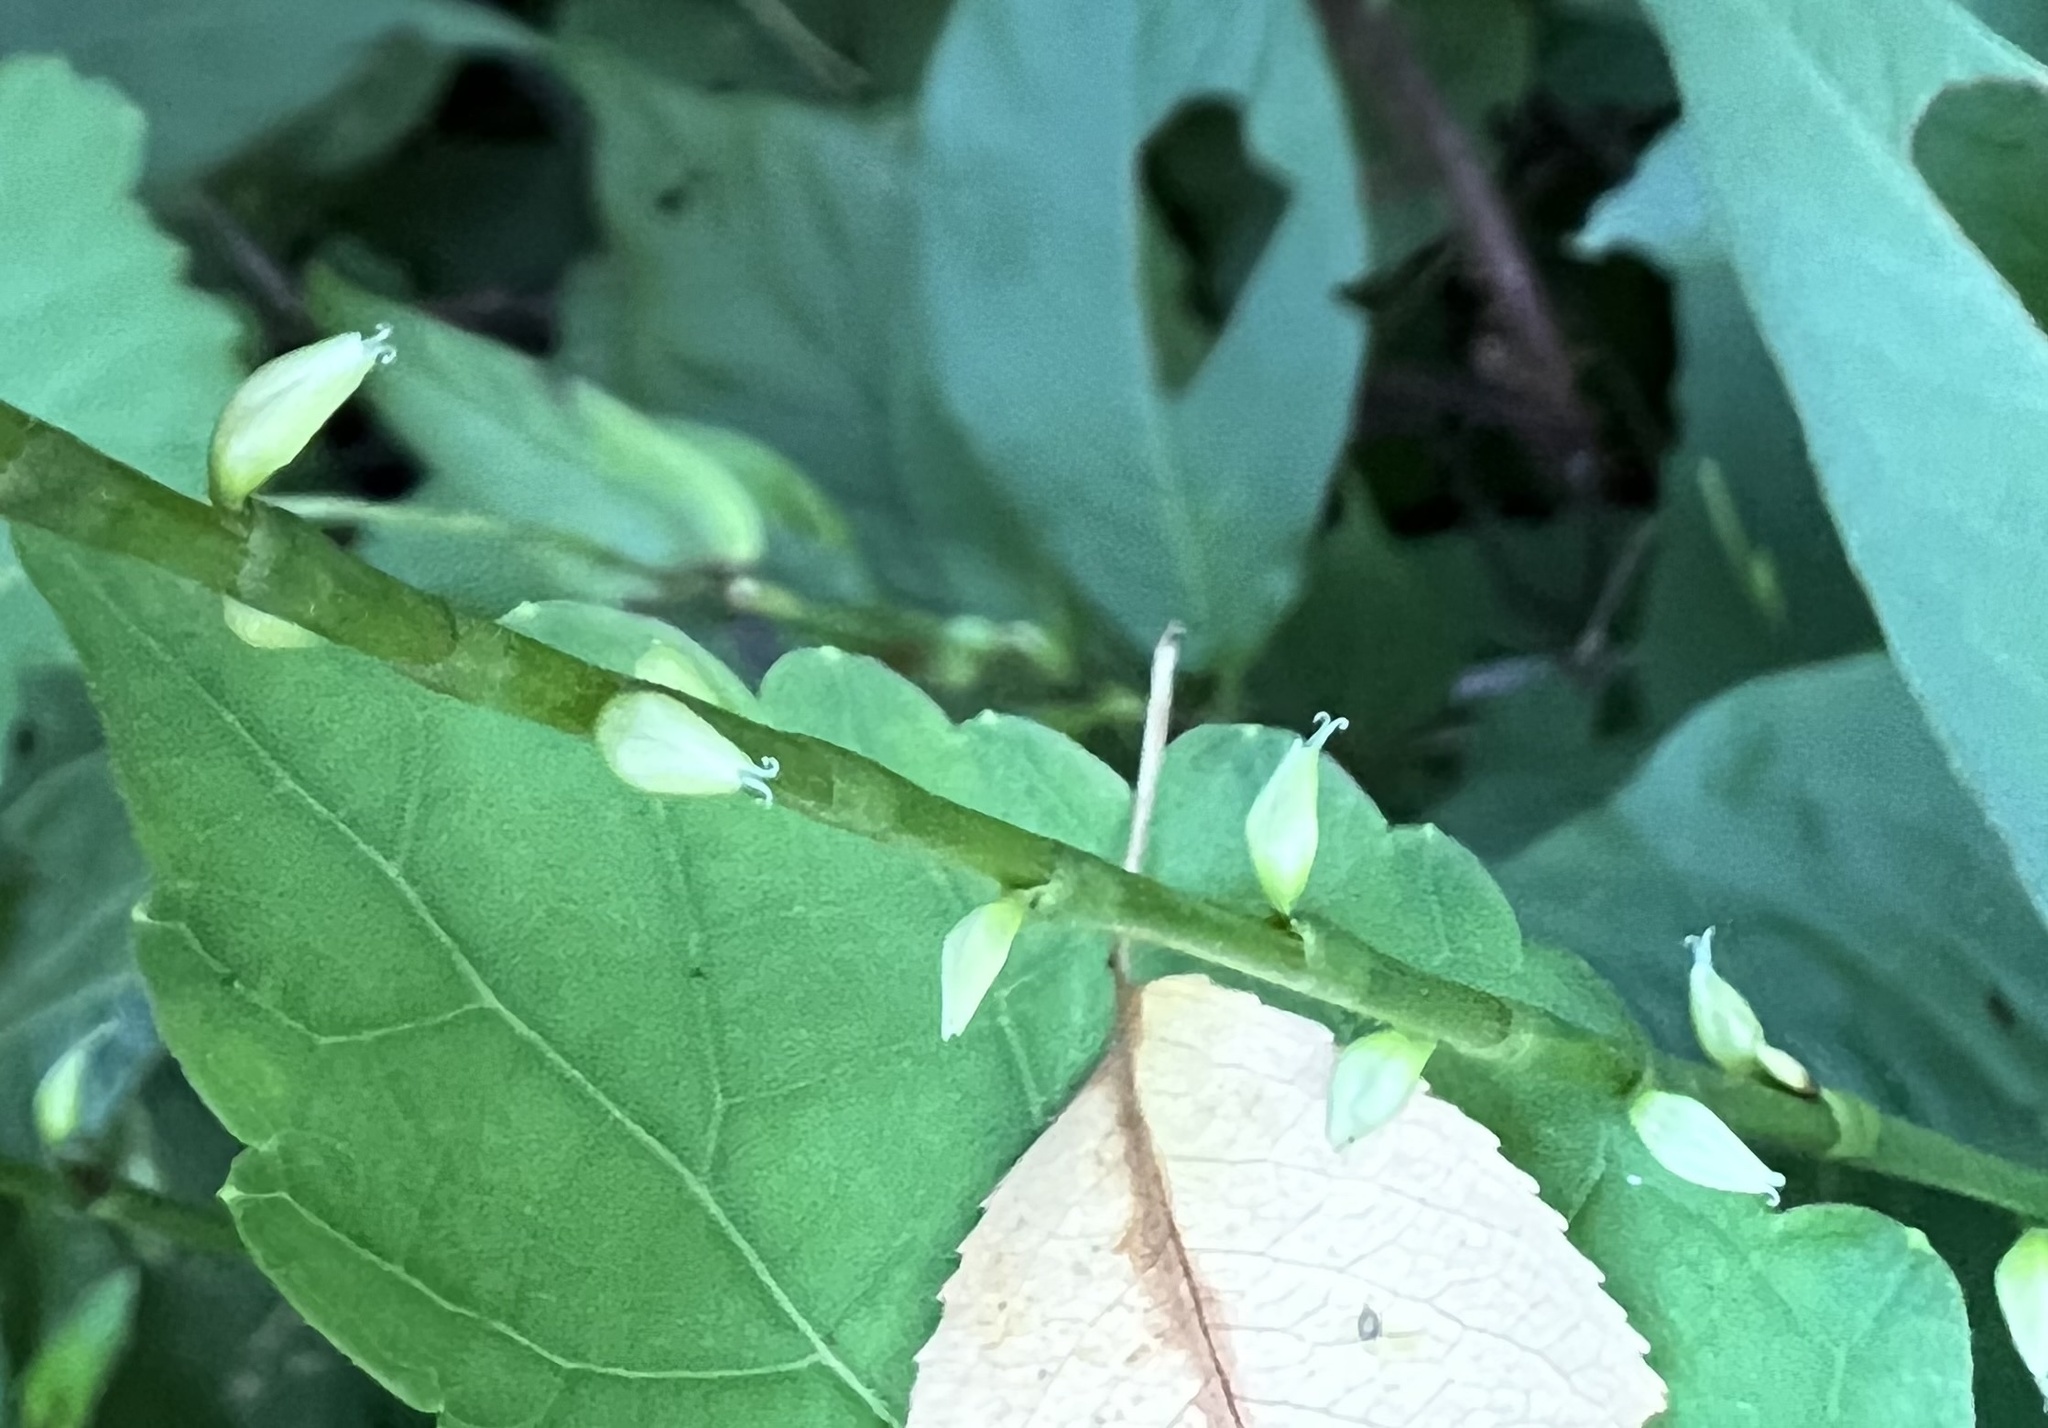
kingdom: Plantae
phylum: Tracheophyta
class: Magnoliopsida
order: Caryophyllales
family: Polygonaceae
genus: Persicaria
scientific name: Persicaria virginiana
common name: Jumpseed
